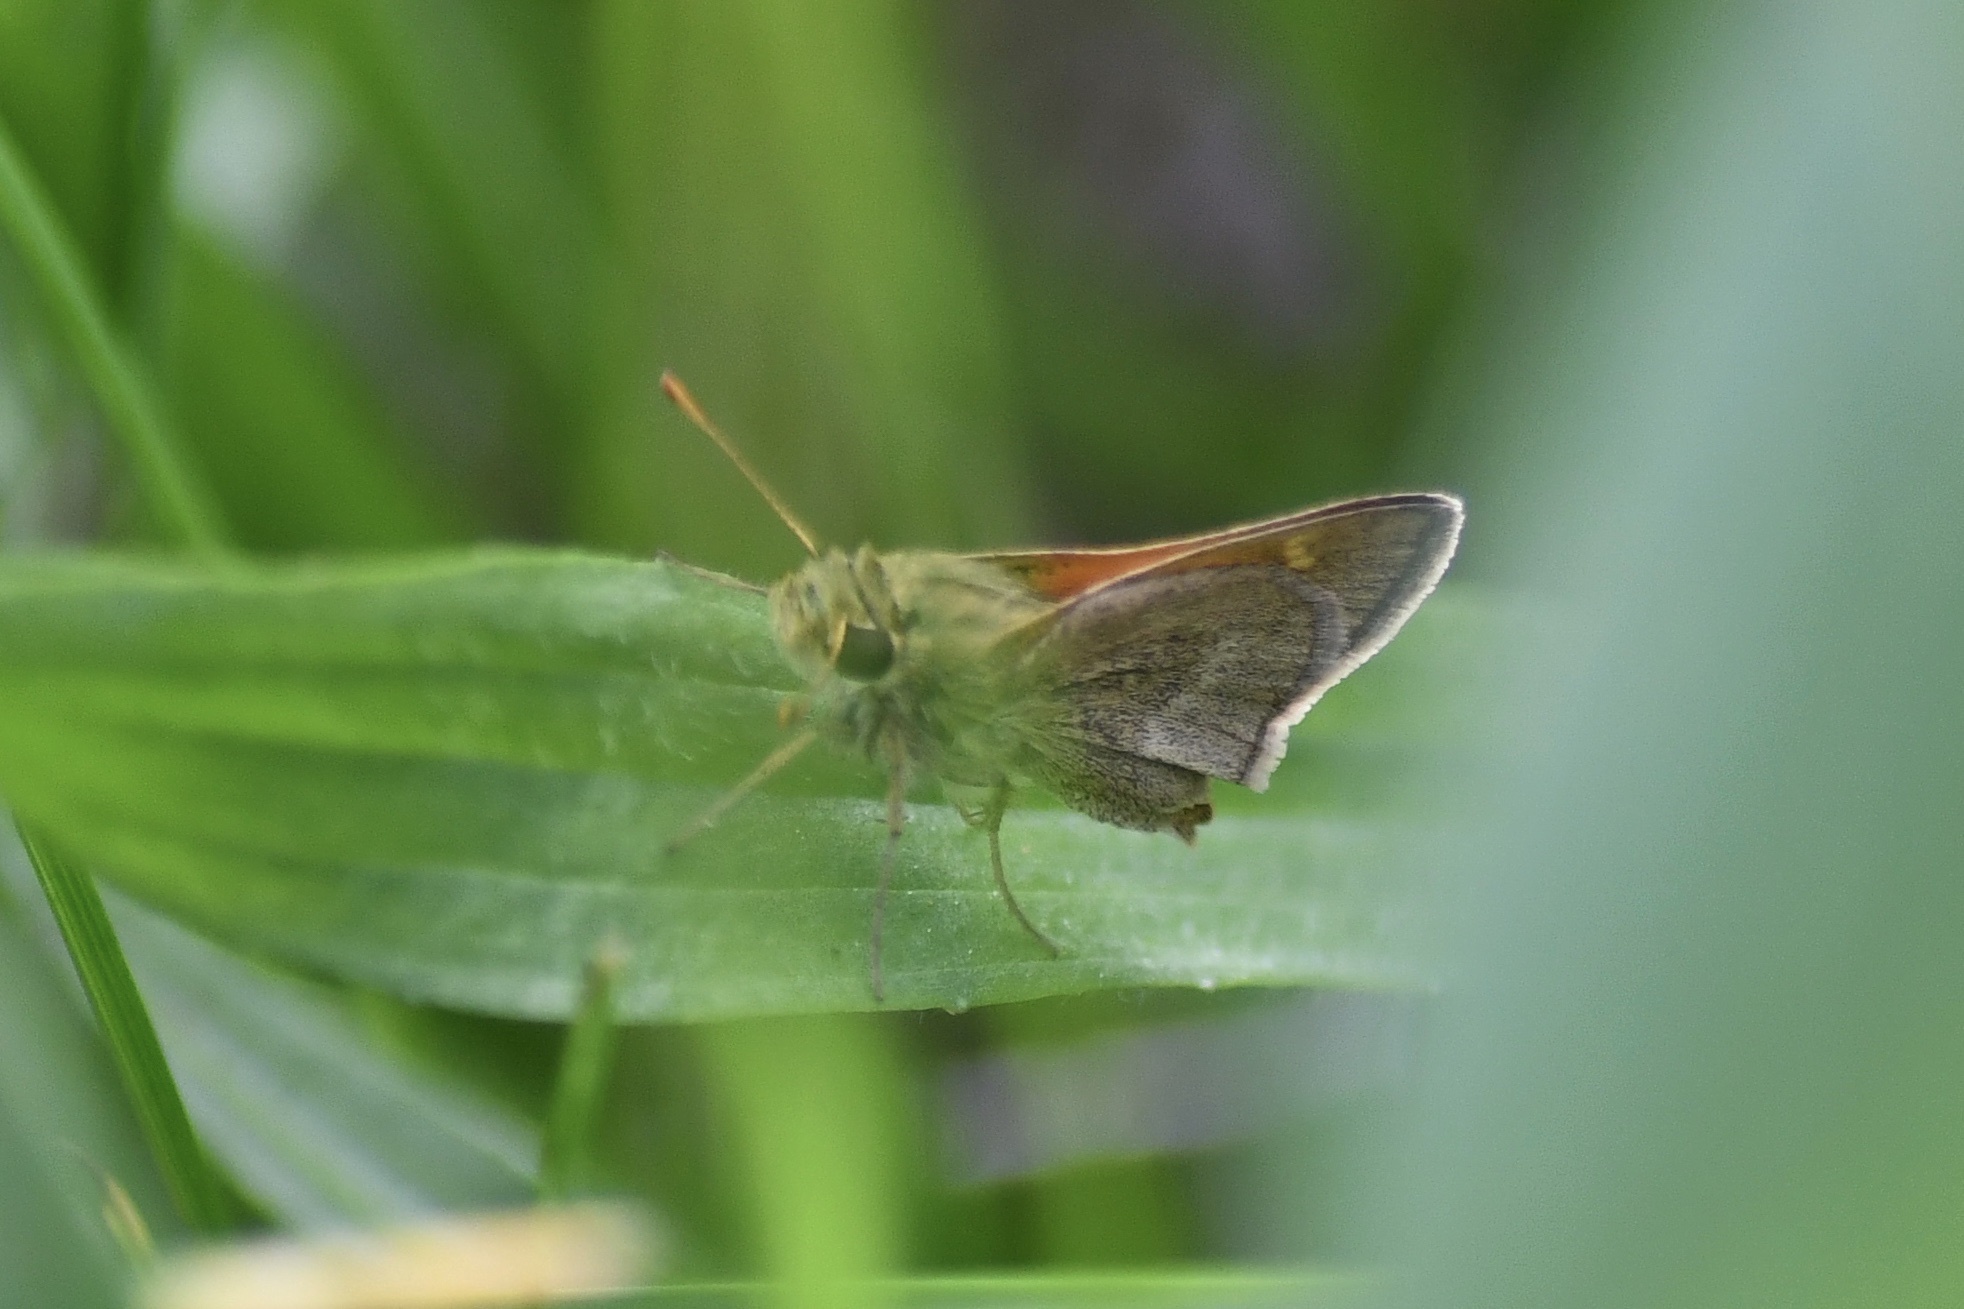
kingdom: Animalia
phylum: Arthropoda
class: Insecta
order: Lepidoptera
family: Hesperiidae
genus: Polites
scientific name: Polites themistocles
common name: Tawny-edged skipper
